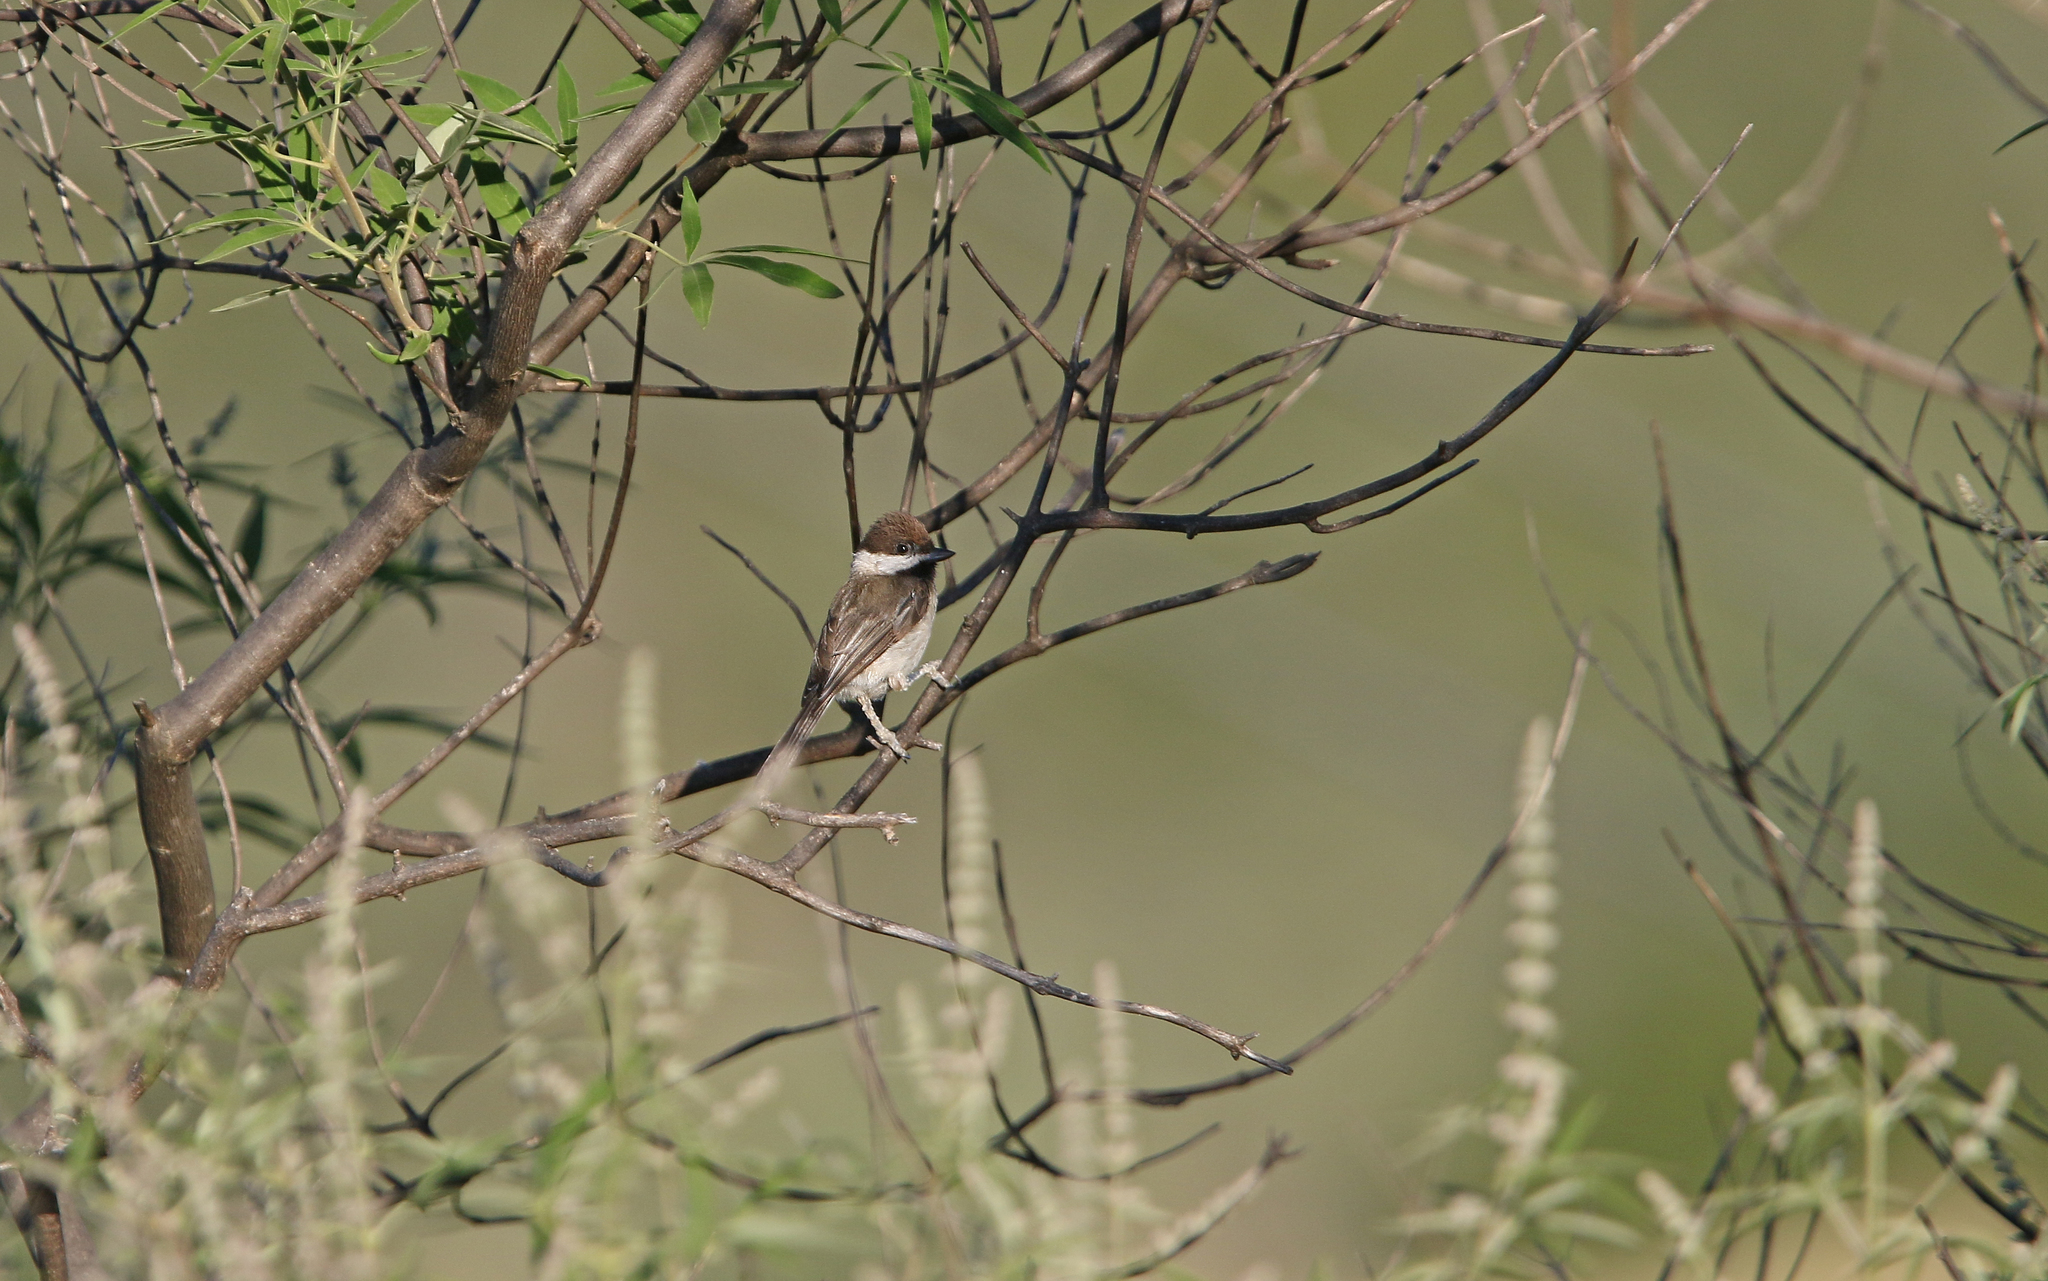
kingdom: Animalia
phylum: Chordata
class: Aves
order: Passeriformes
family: Paridae
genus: Poecile
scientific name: Poecile lugubris
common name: Sombre tit
